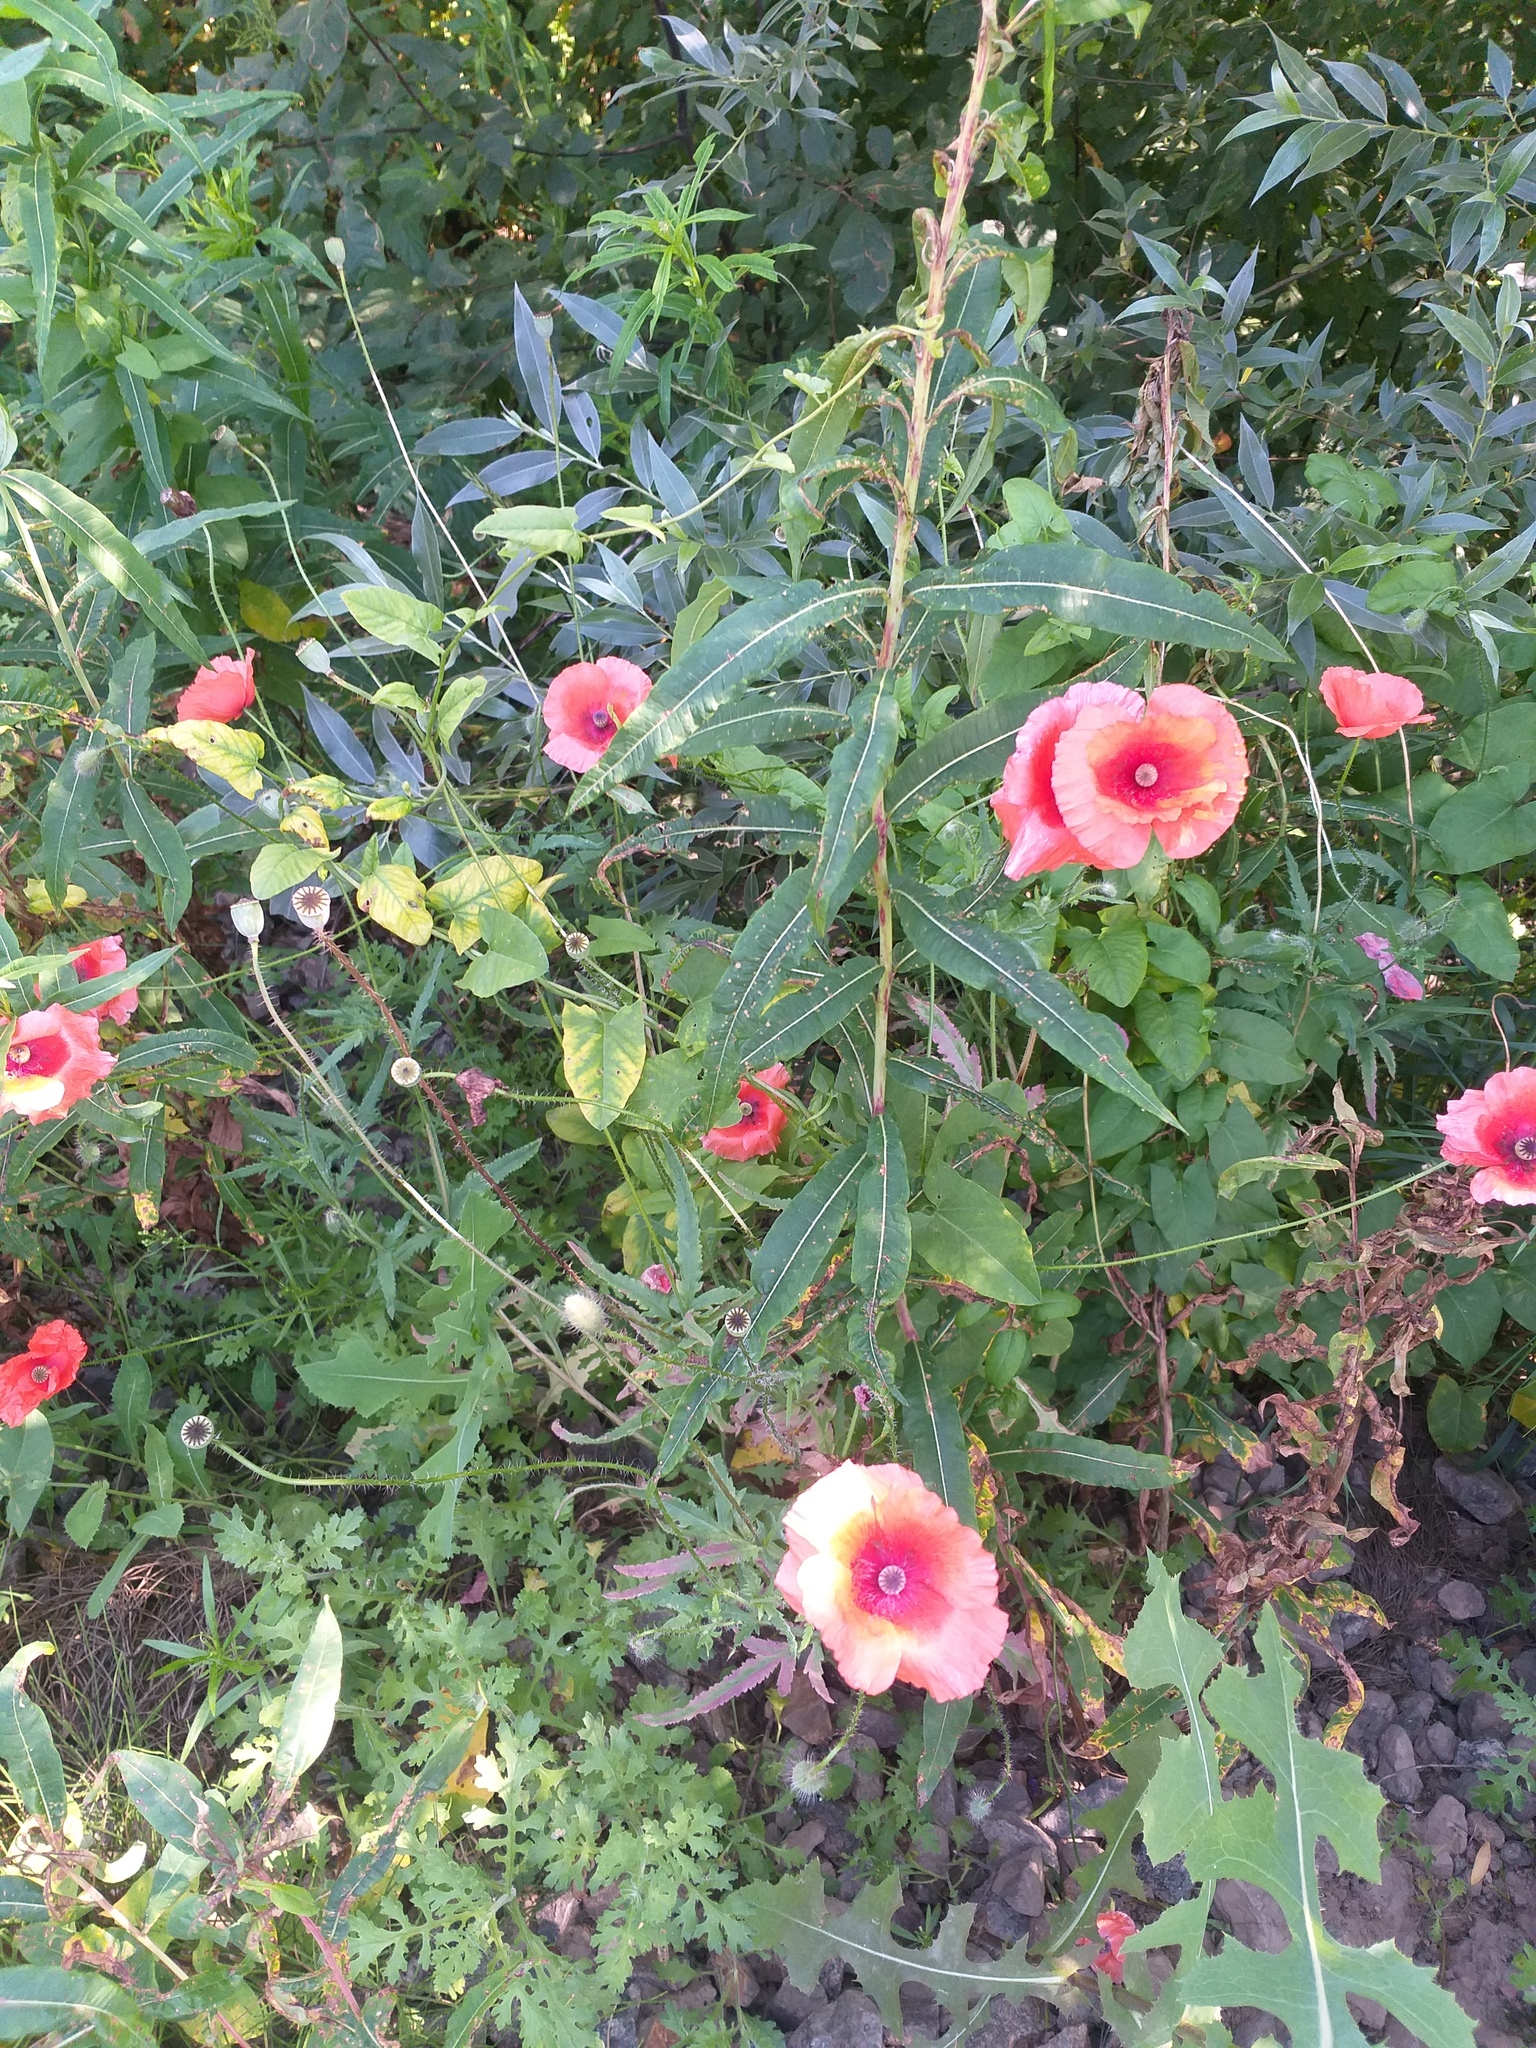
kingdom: Plantae
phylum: Tracheophyta
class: Magnoliopsida
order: Ranunculales
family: Papaveraceae
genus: Papaver
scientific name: Papaver rhoeas
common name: Corn poppy
